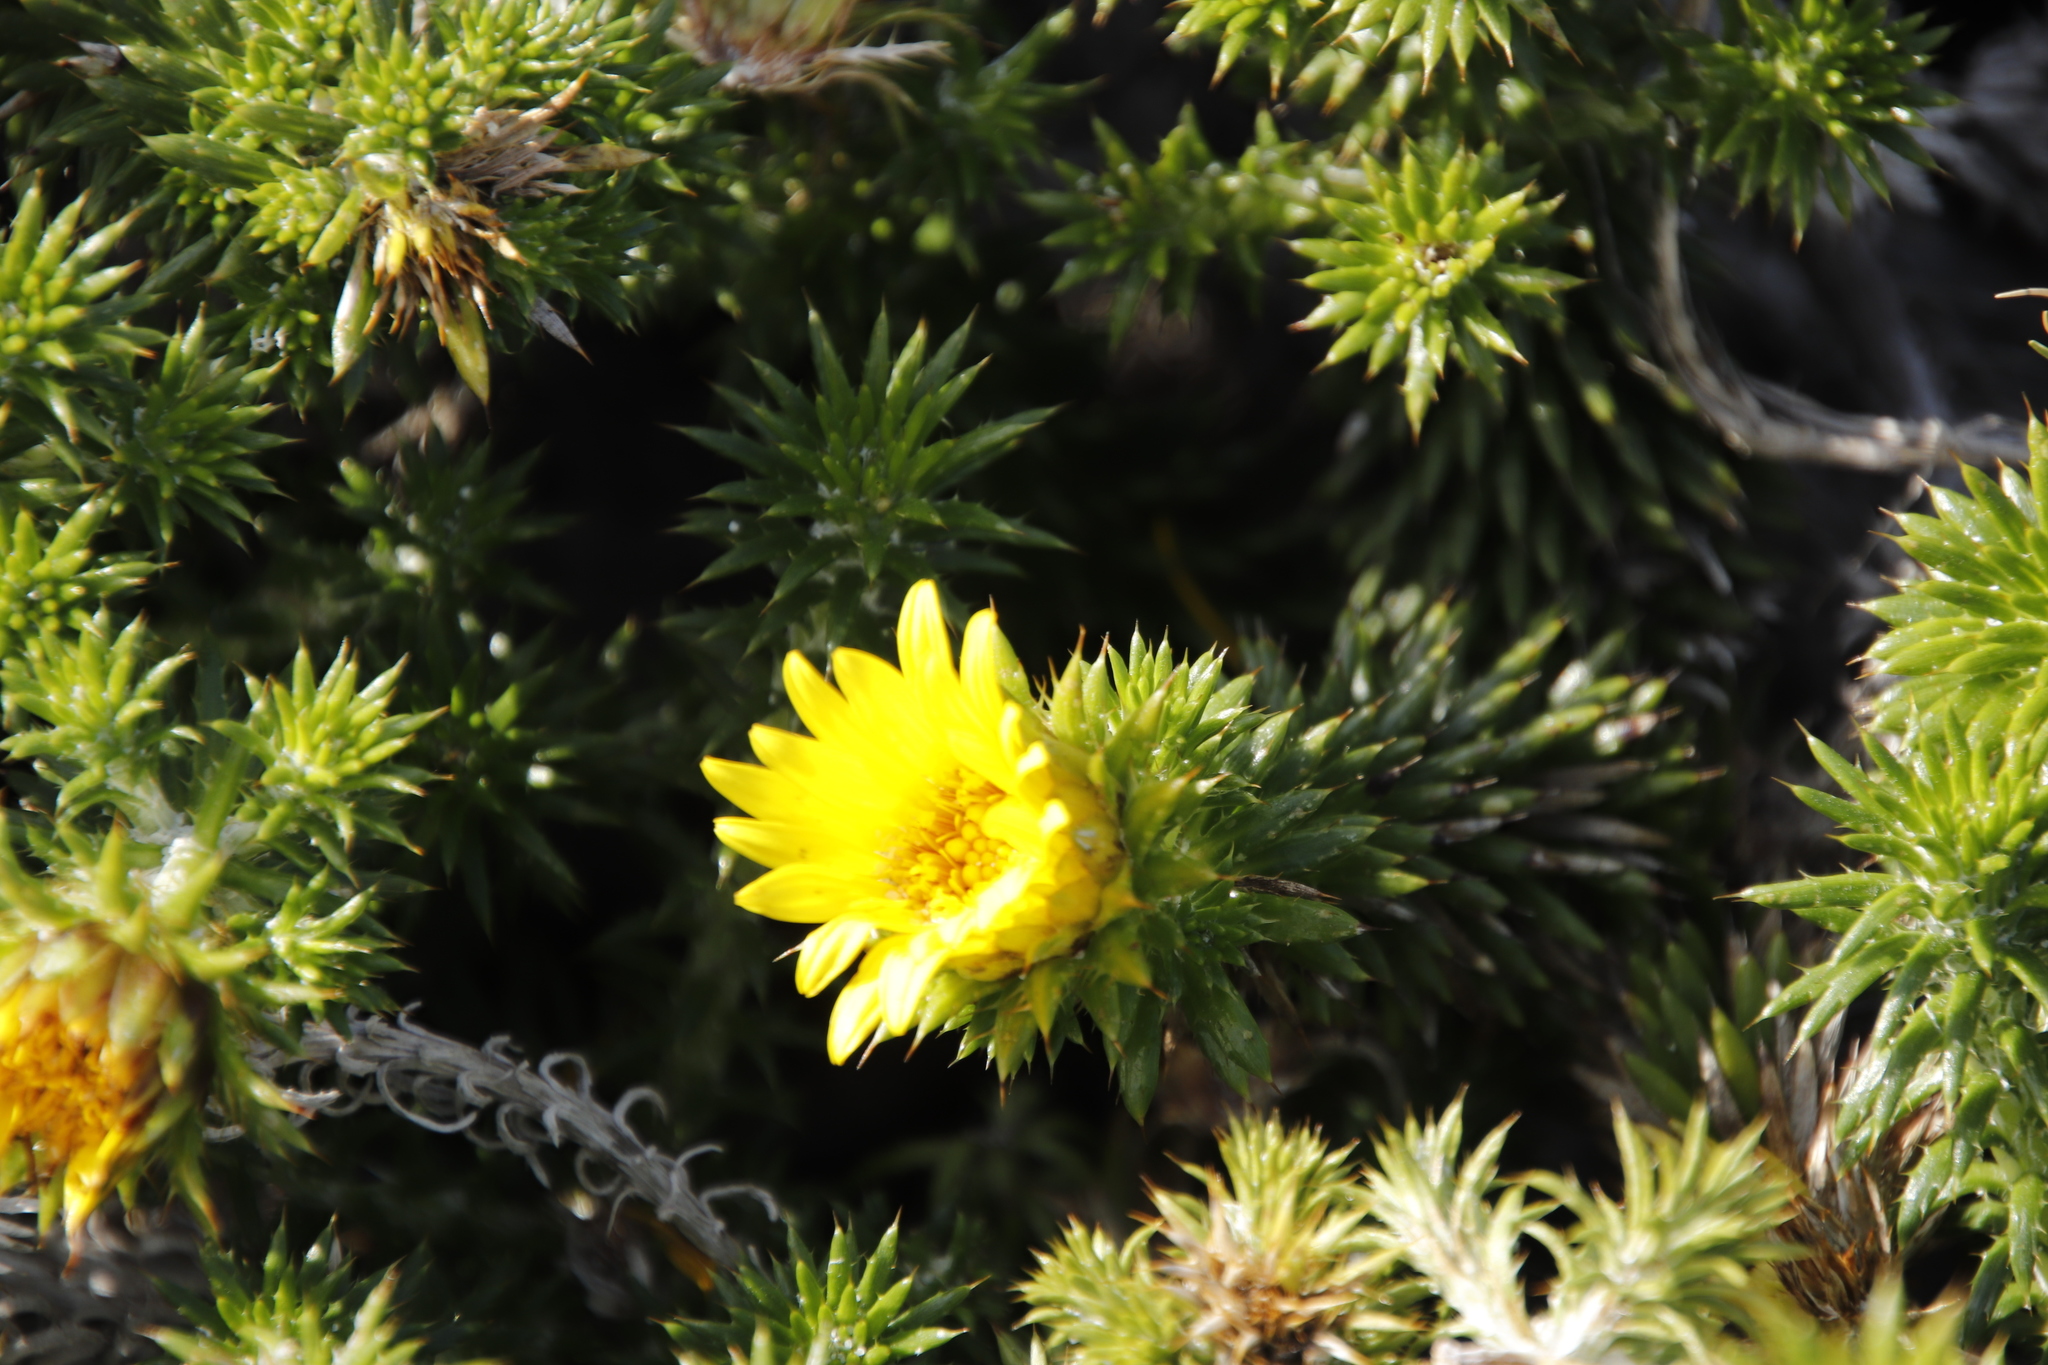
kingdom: Plantae
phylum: Tracheophyta
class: Magnoliopsida
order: Asterales
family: Asteraceae
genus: Cullumia
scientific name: Cullumia squarrosa
